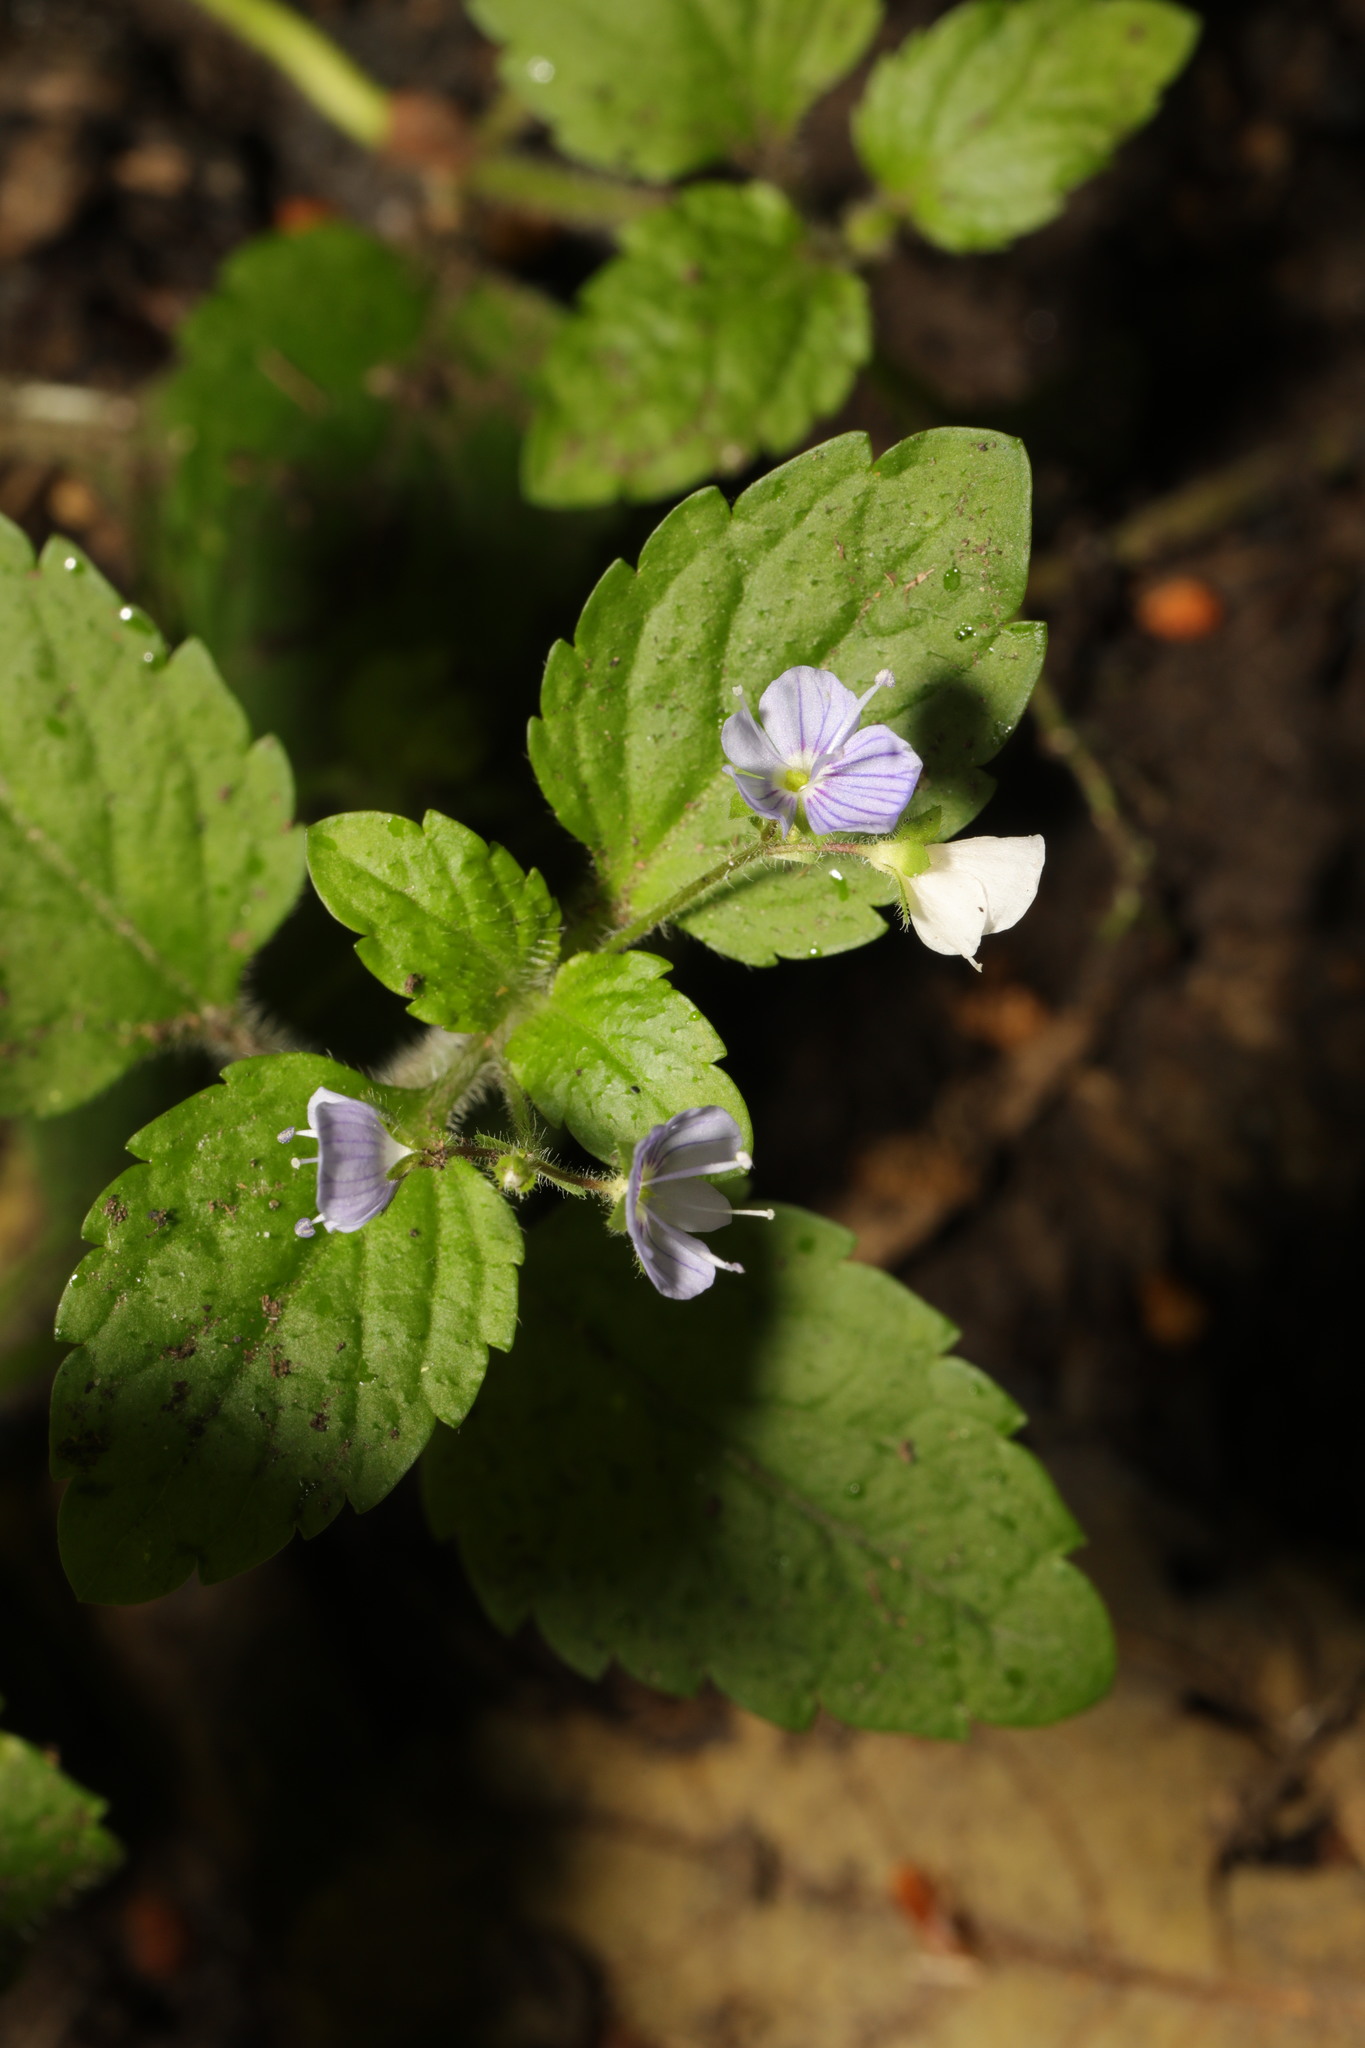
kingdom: Plantae
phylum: Tracheophyta
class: Magnoliopsida
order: Lamiales
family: Plantaginaceae
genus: Veronica
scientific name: Veronica montana
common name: Wood speedwell
